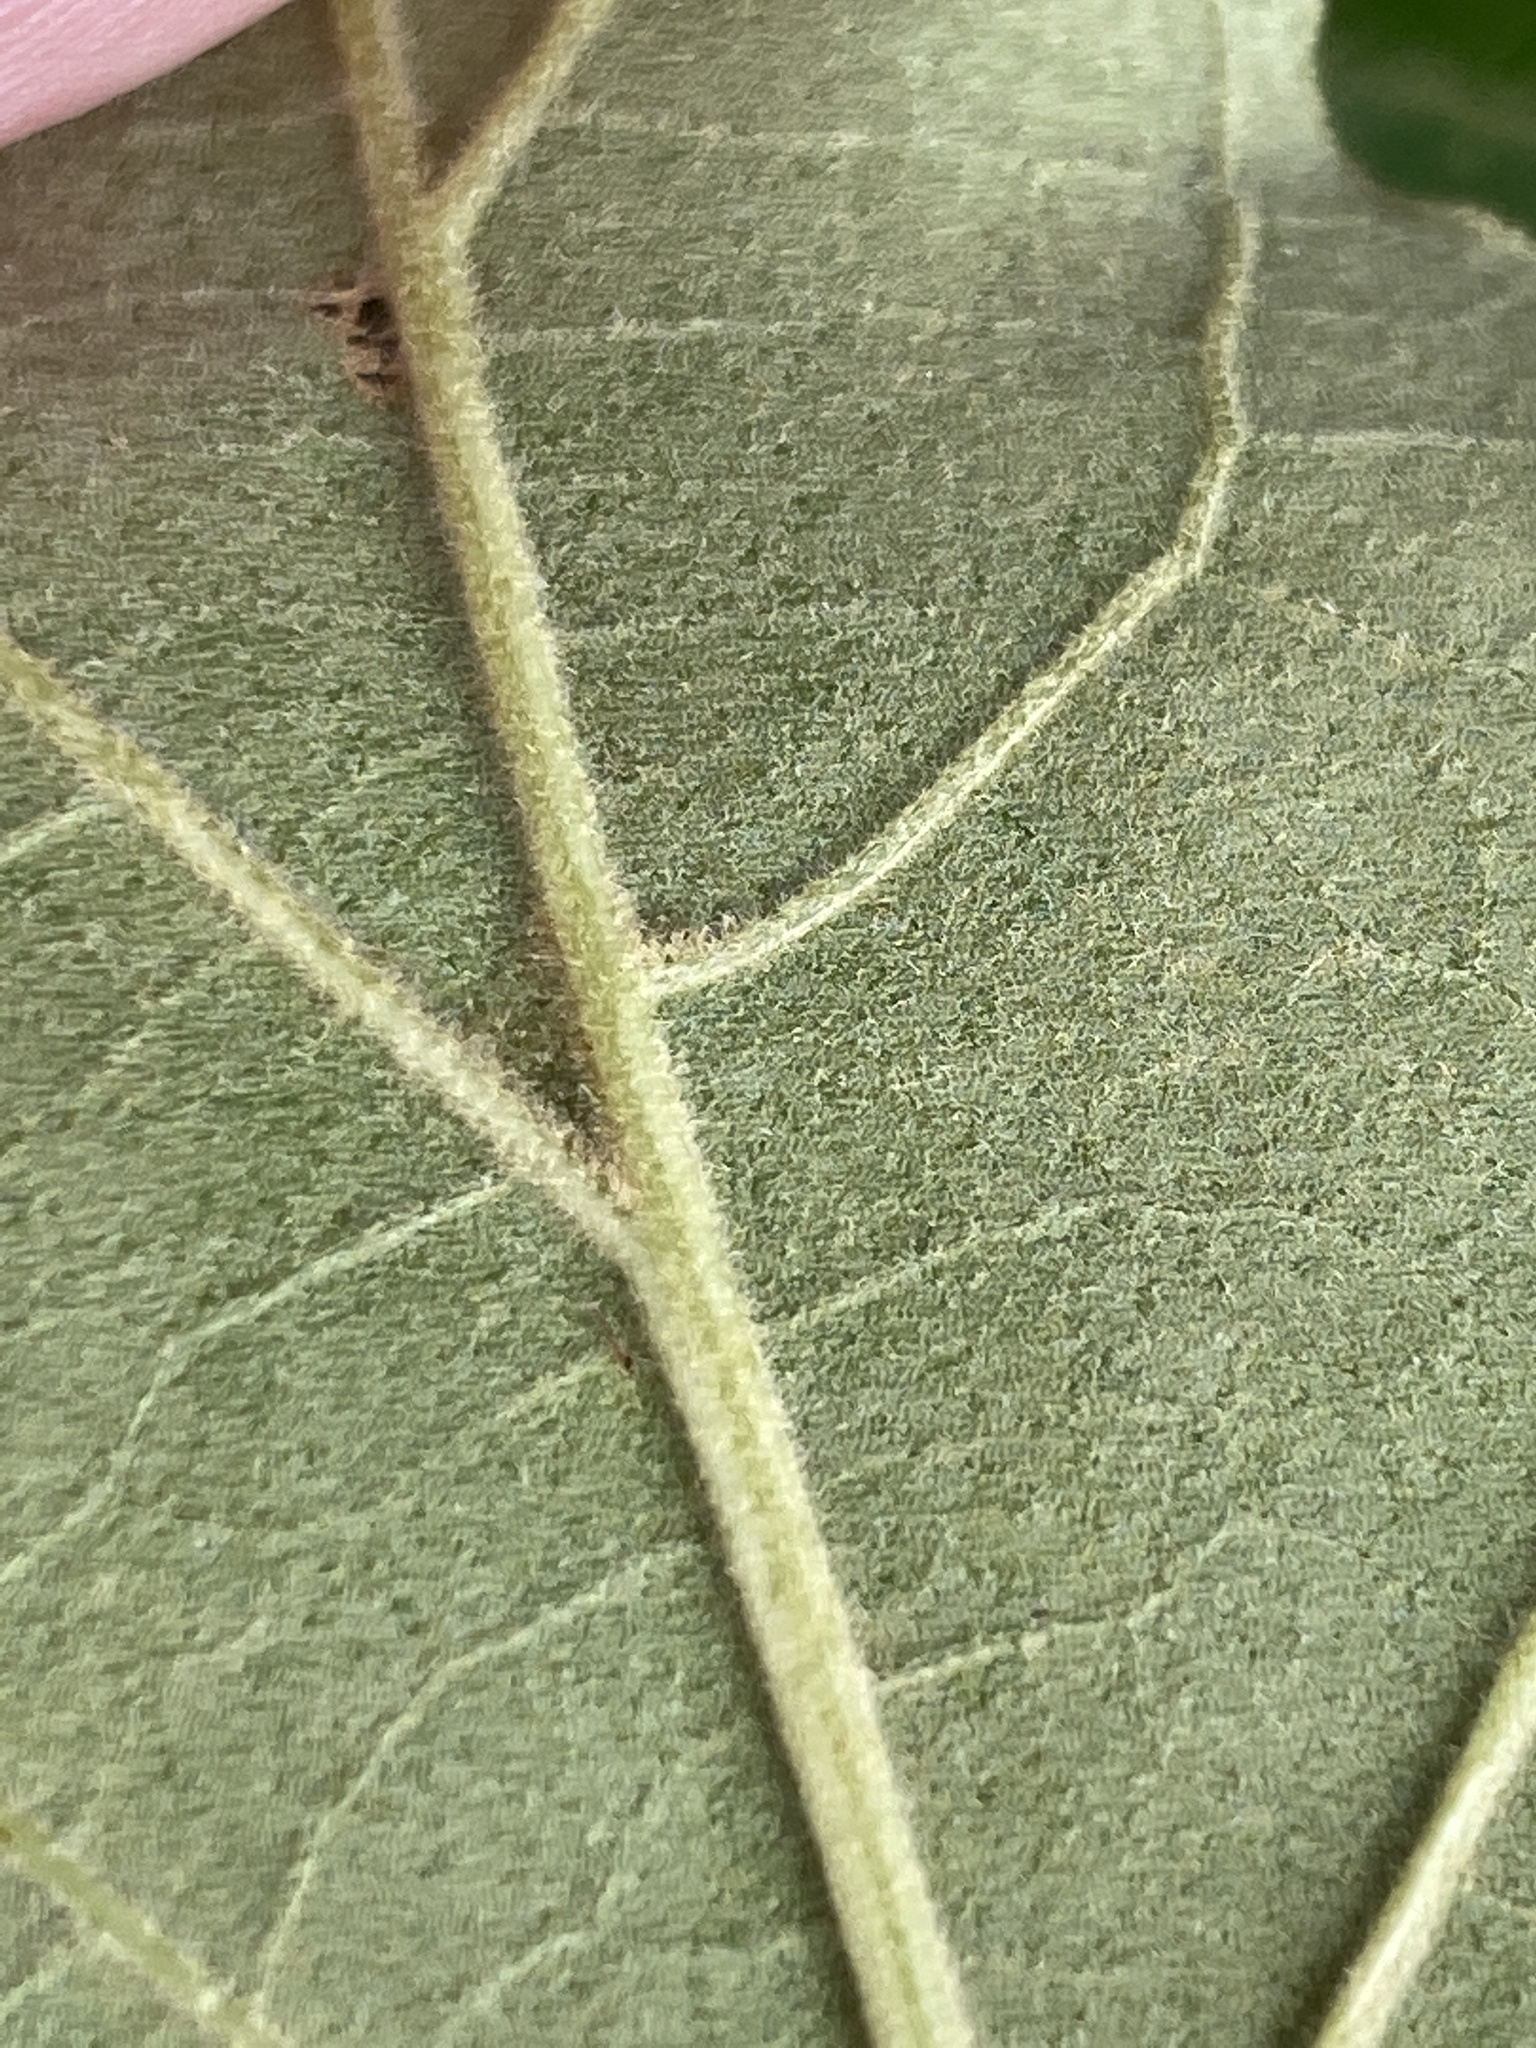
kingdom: Plantae
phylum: Tracheophyta
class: Magnoliopsida
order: Fagales
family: Fagaceae
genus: Quercus
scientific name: Quercus falcata
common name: Southern red oak
